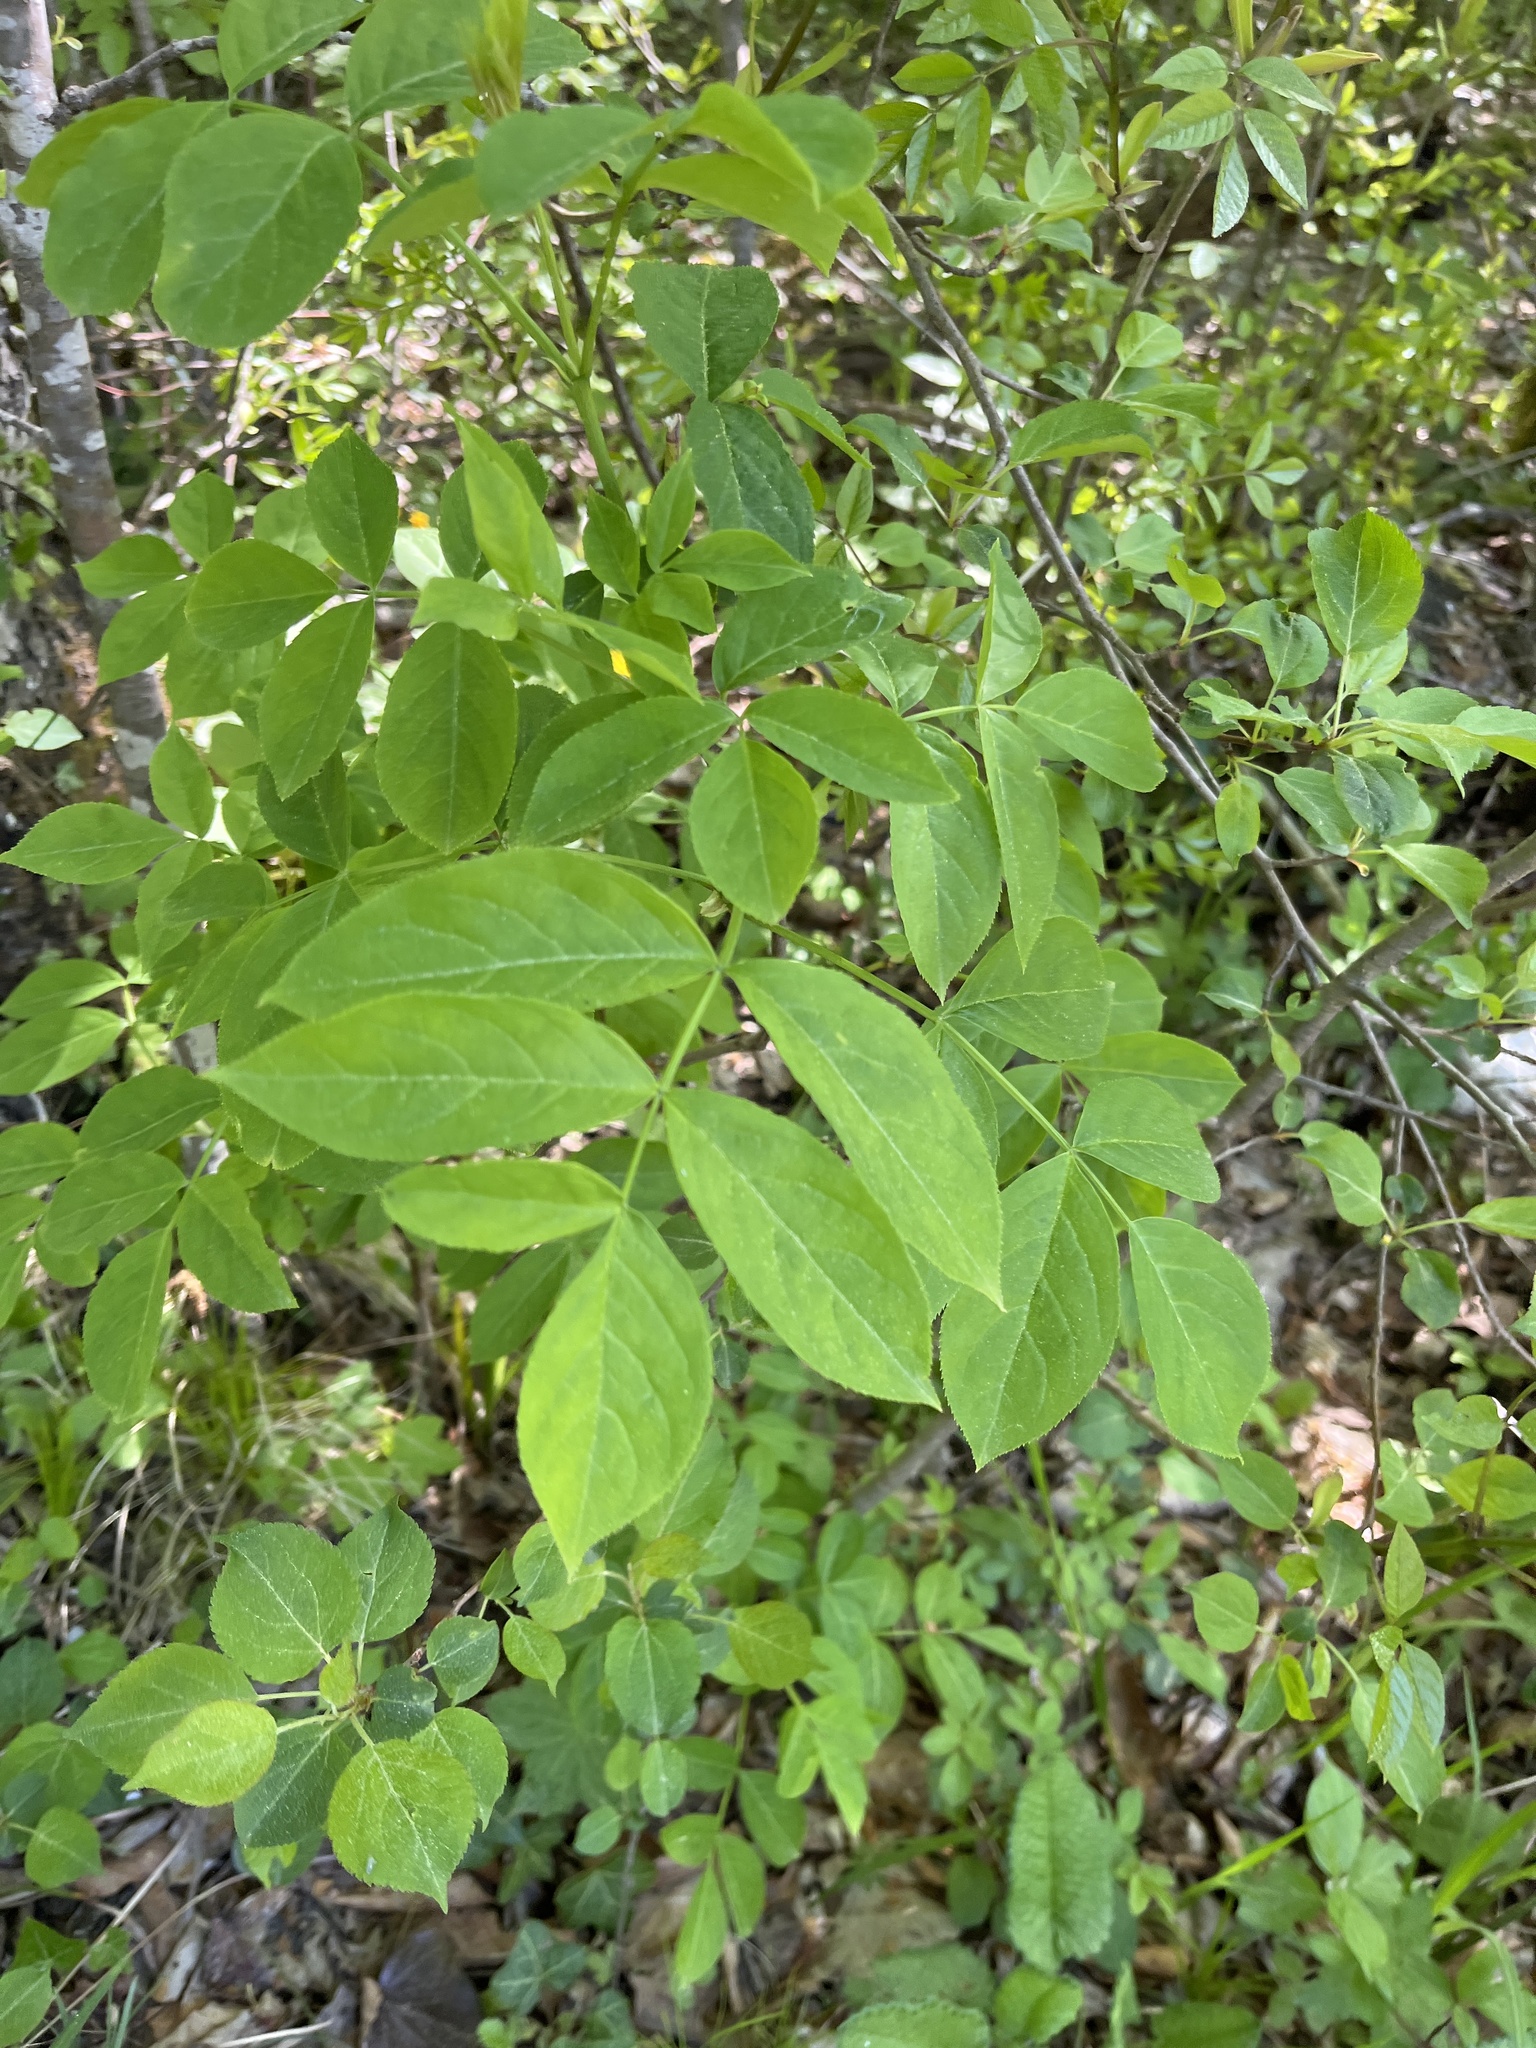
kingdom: Plantae
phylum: Tracheophyta
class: Magnoliopsida
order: Crossosomatales
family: Staphyleaceae
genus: Staphylea
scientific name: Staphylea pinnata
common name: Bladdernut
